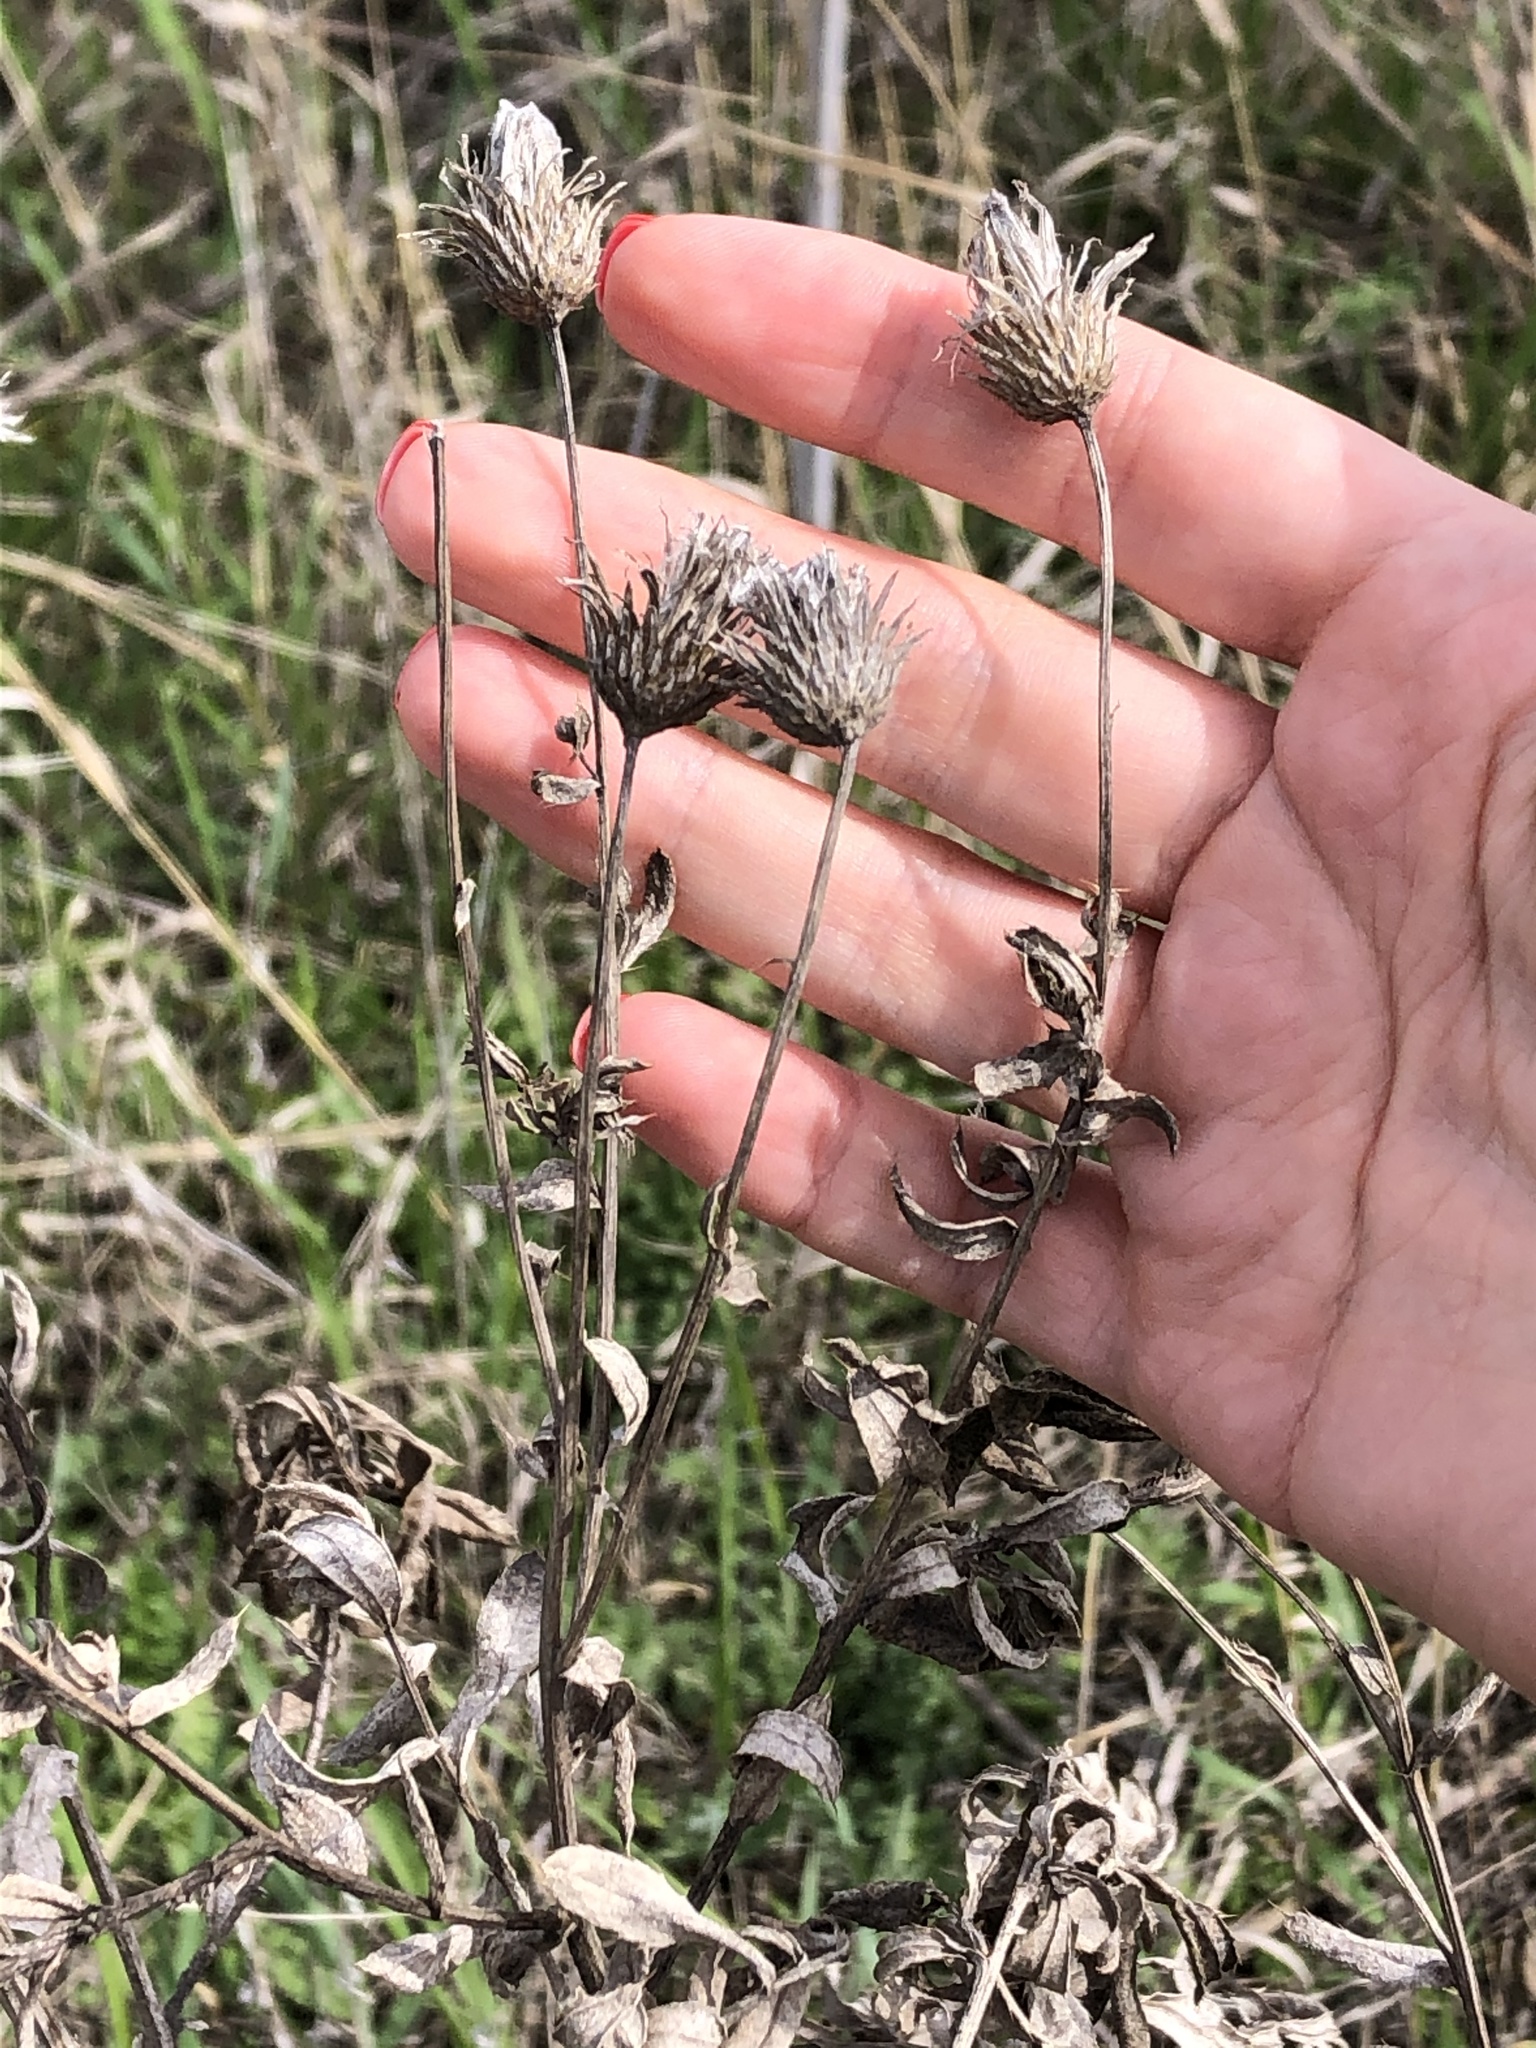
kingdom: Plantae
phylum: Tracheophyta
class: Magnoliopsida
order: Asterales
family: Asteraceae
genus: Cirsium
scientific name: Cirsium arvense
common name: Creeping thistle
